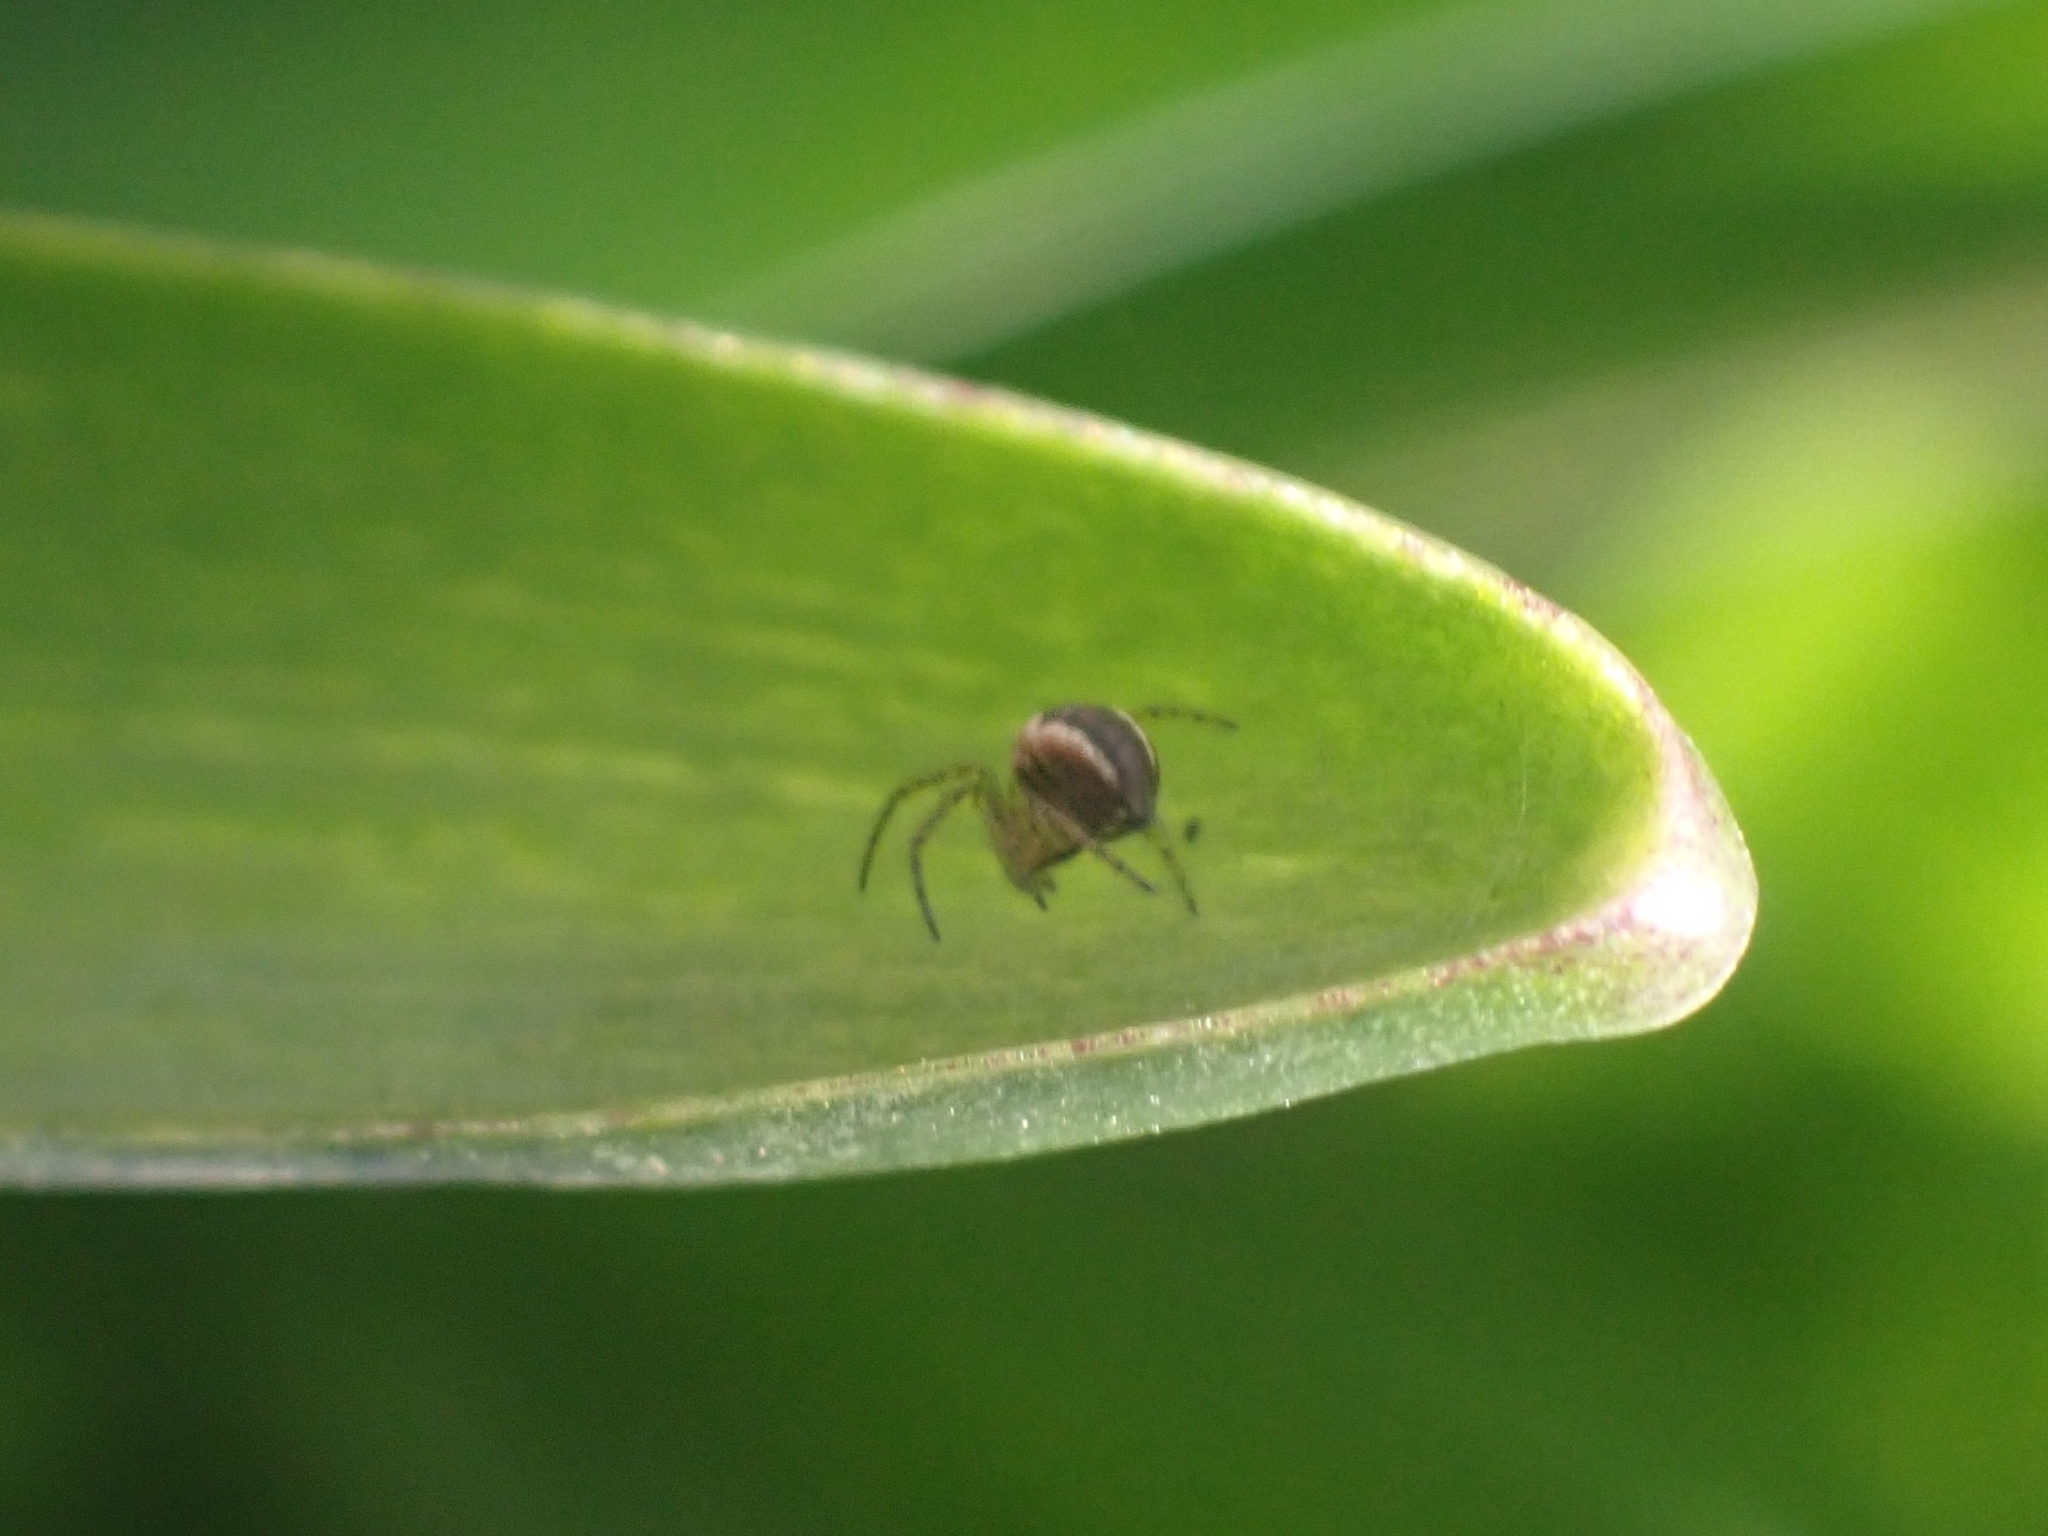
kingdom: Animalia
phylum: Arthropoda
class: Arachnida
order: Araneae
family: Araneidae
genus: Mangora
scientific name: Mangora acalypha
